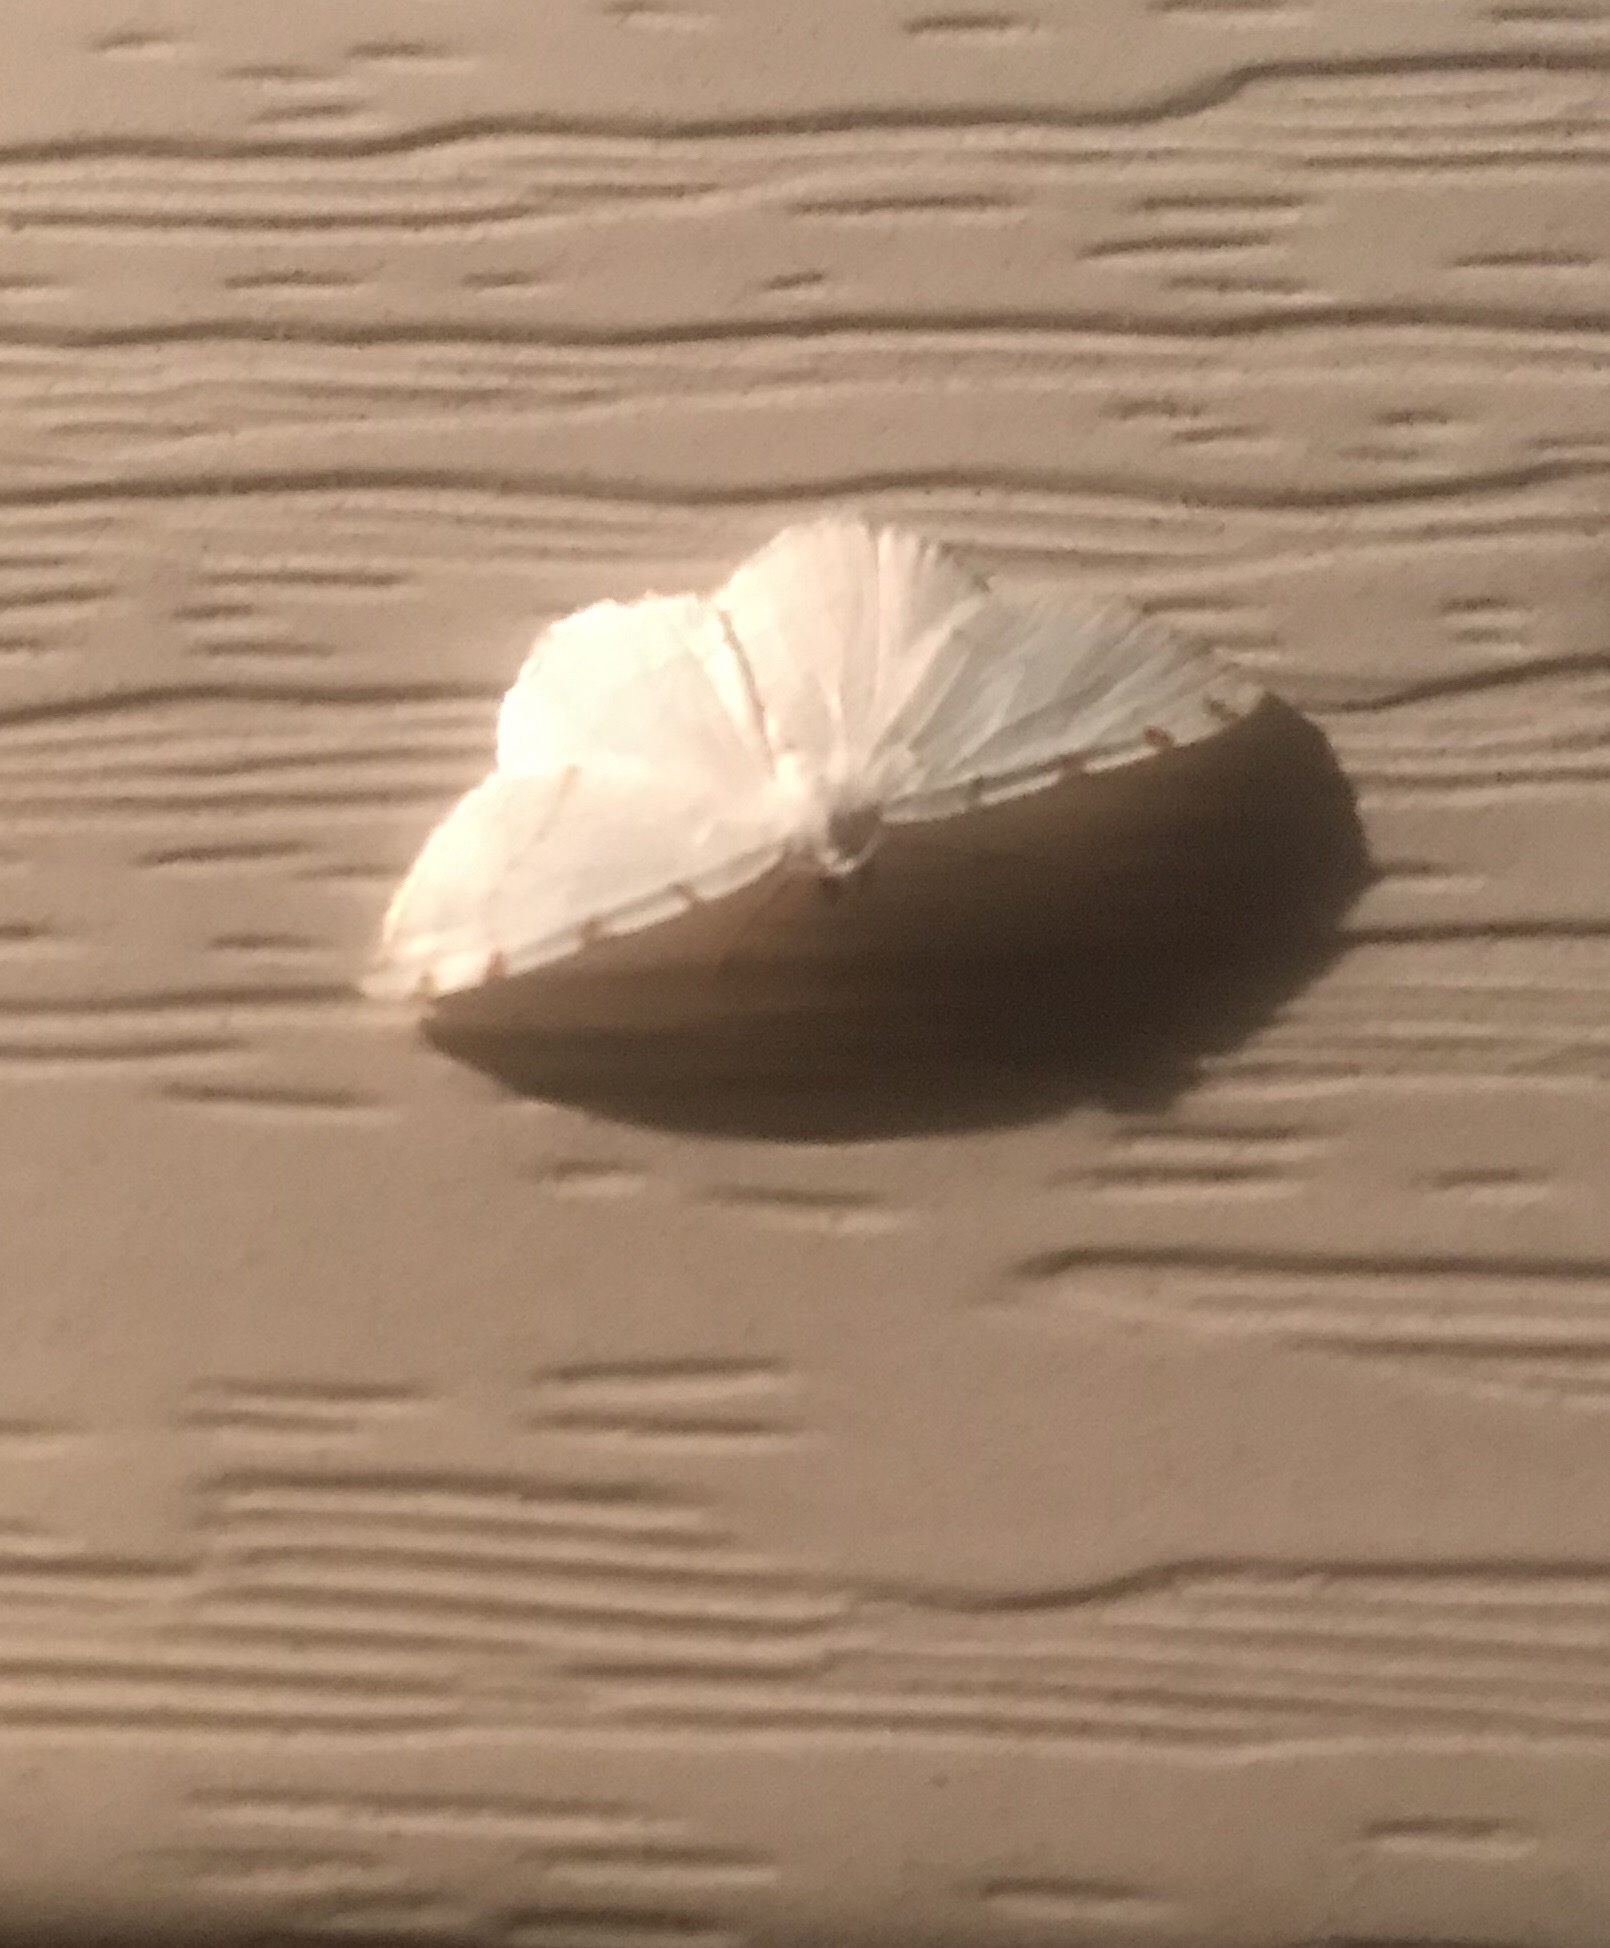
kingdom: Animalia
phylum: Arthropoda
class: Insecta
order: Lepidoptera
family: Geometridae
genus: Macaria
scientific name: Macaria pustularia
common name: Lesser maple spanworm moth
